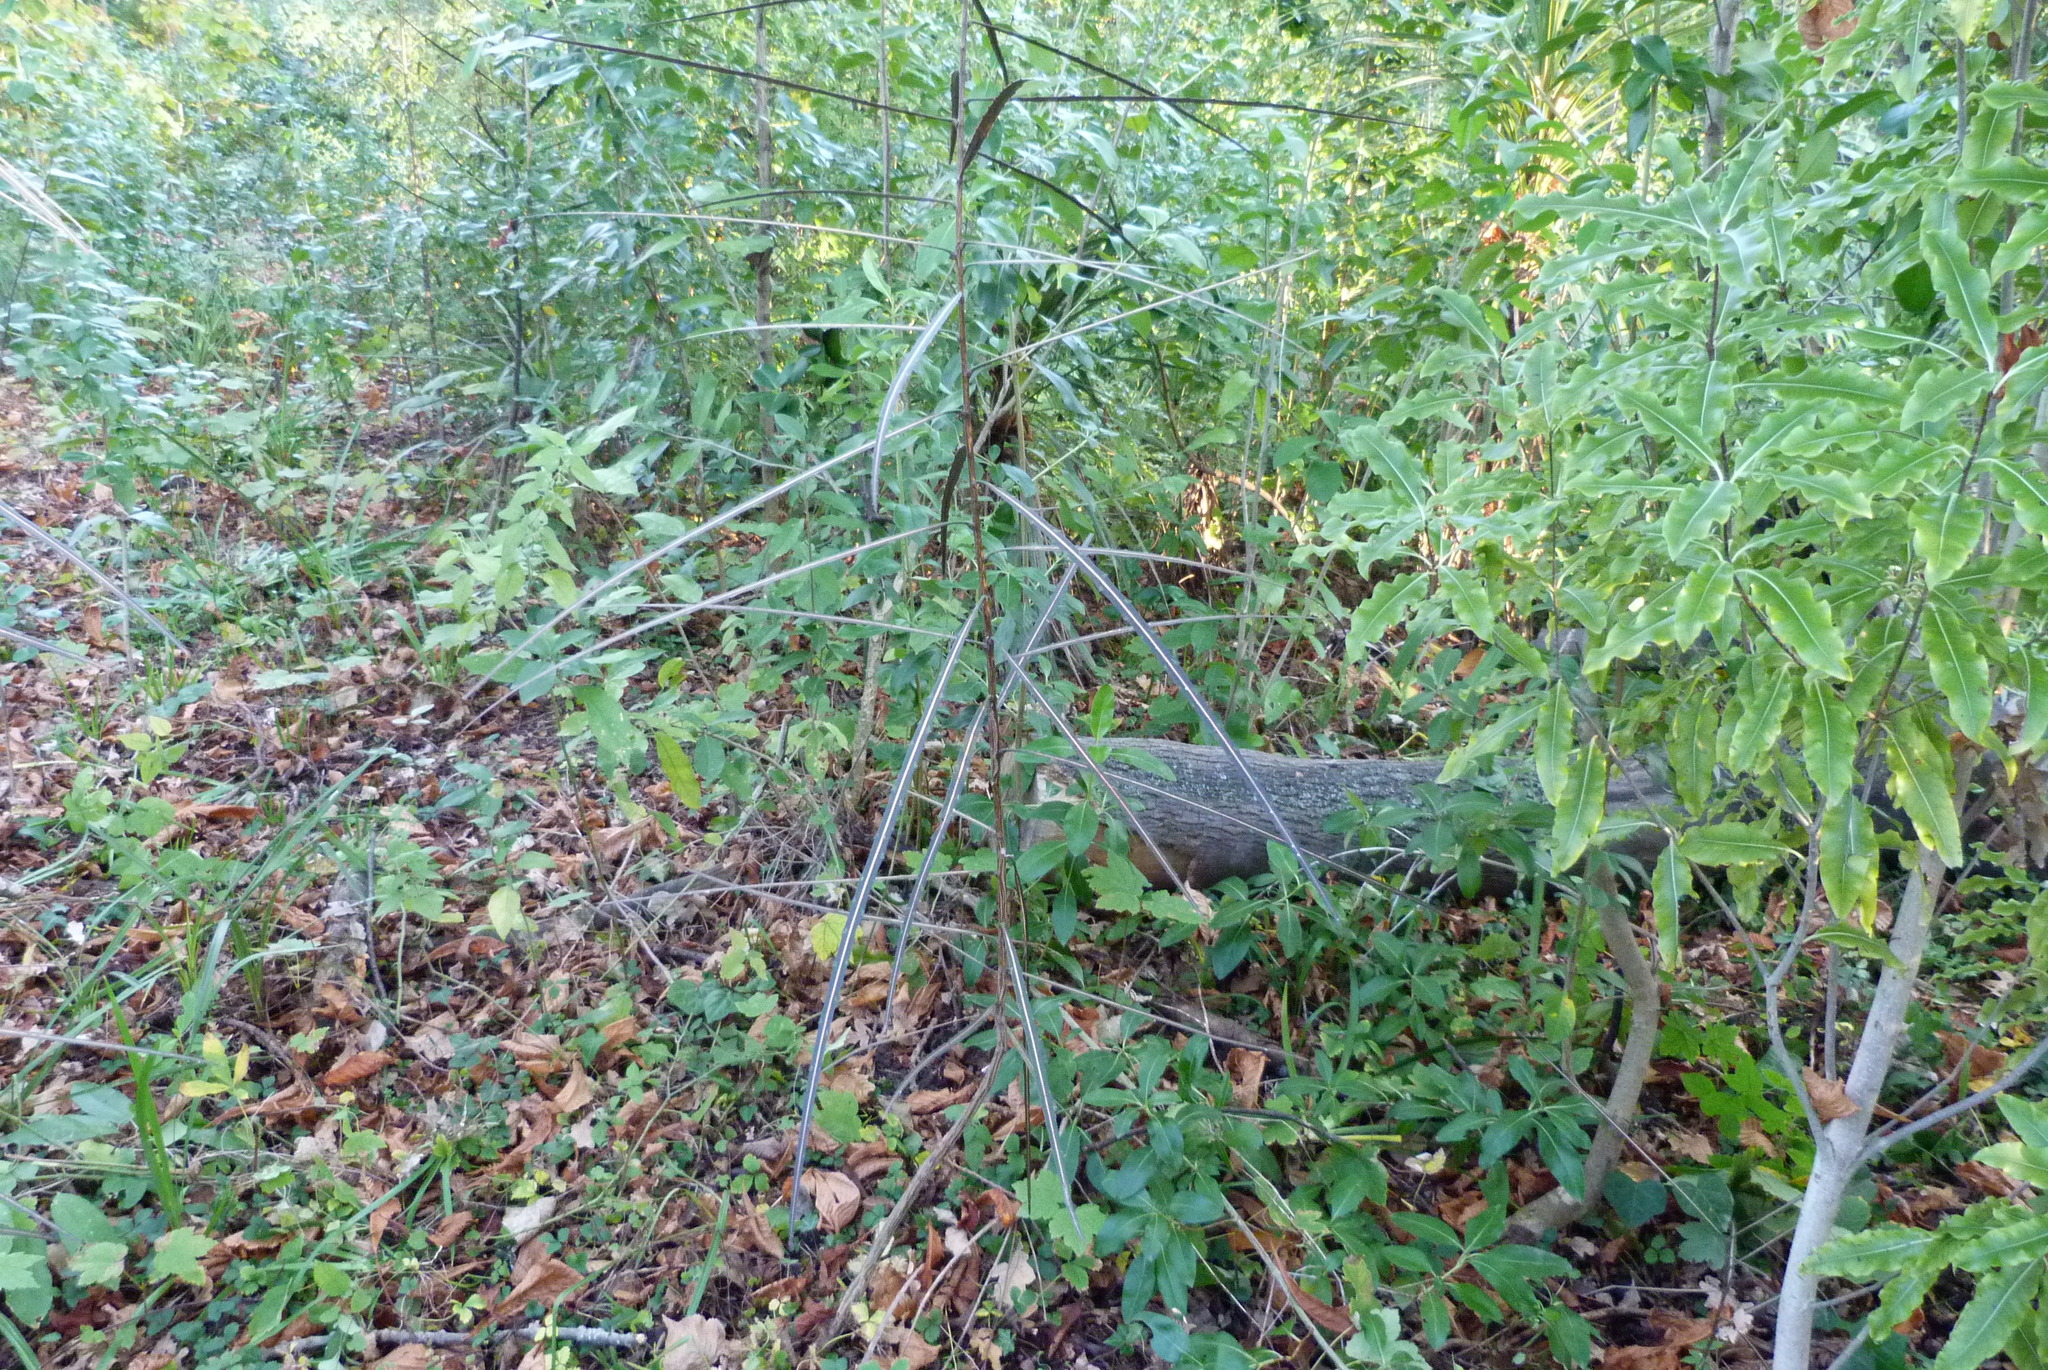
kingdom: Plantae
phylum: Tracheophyta
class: Magnoliopsida
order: Apiales
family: Araliaceae
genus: Pseudopanax
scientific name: Pseudopanax crassifolius
